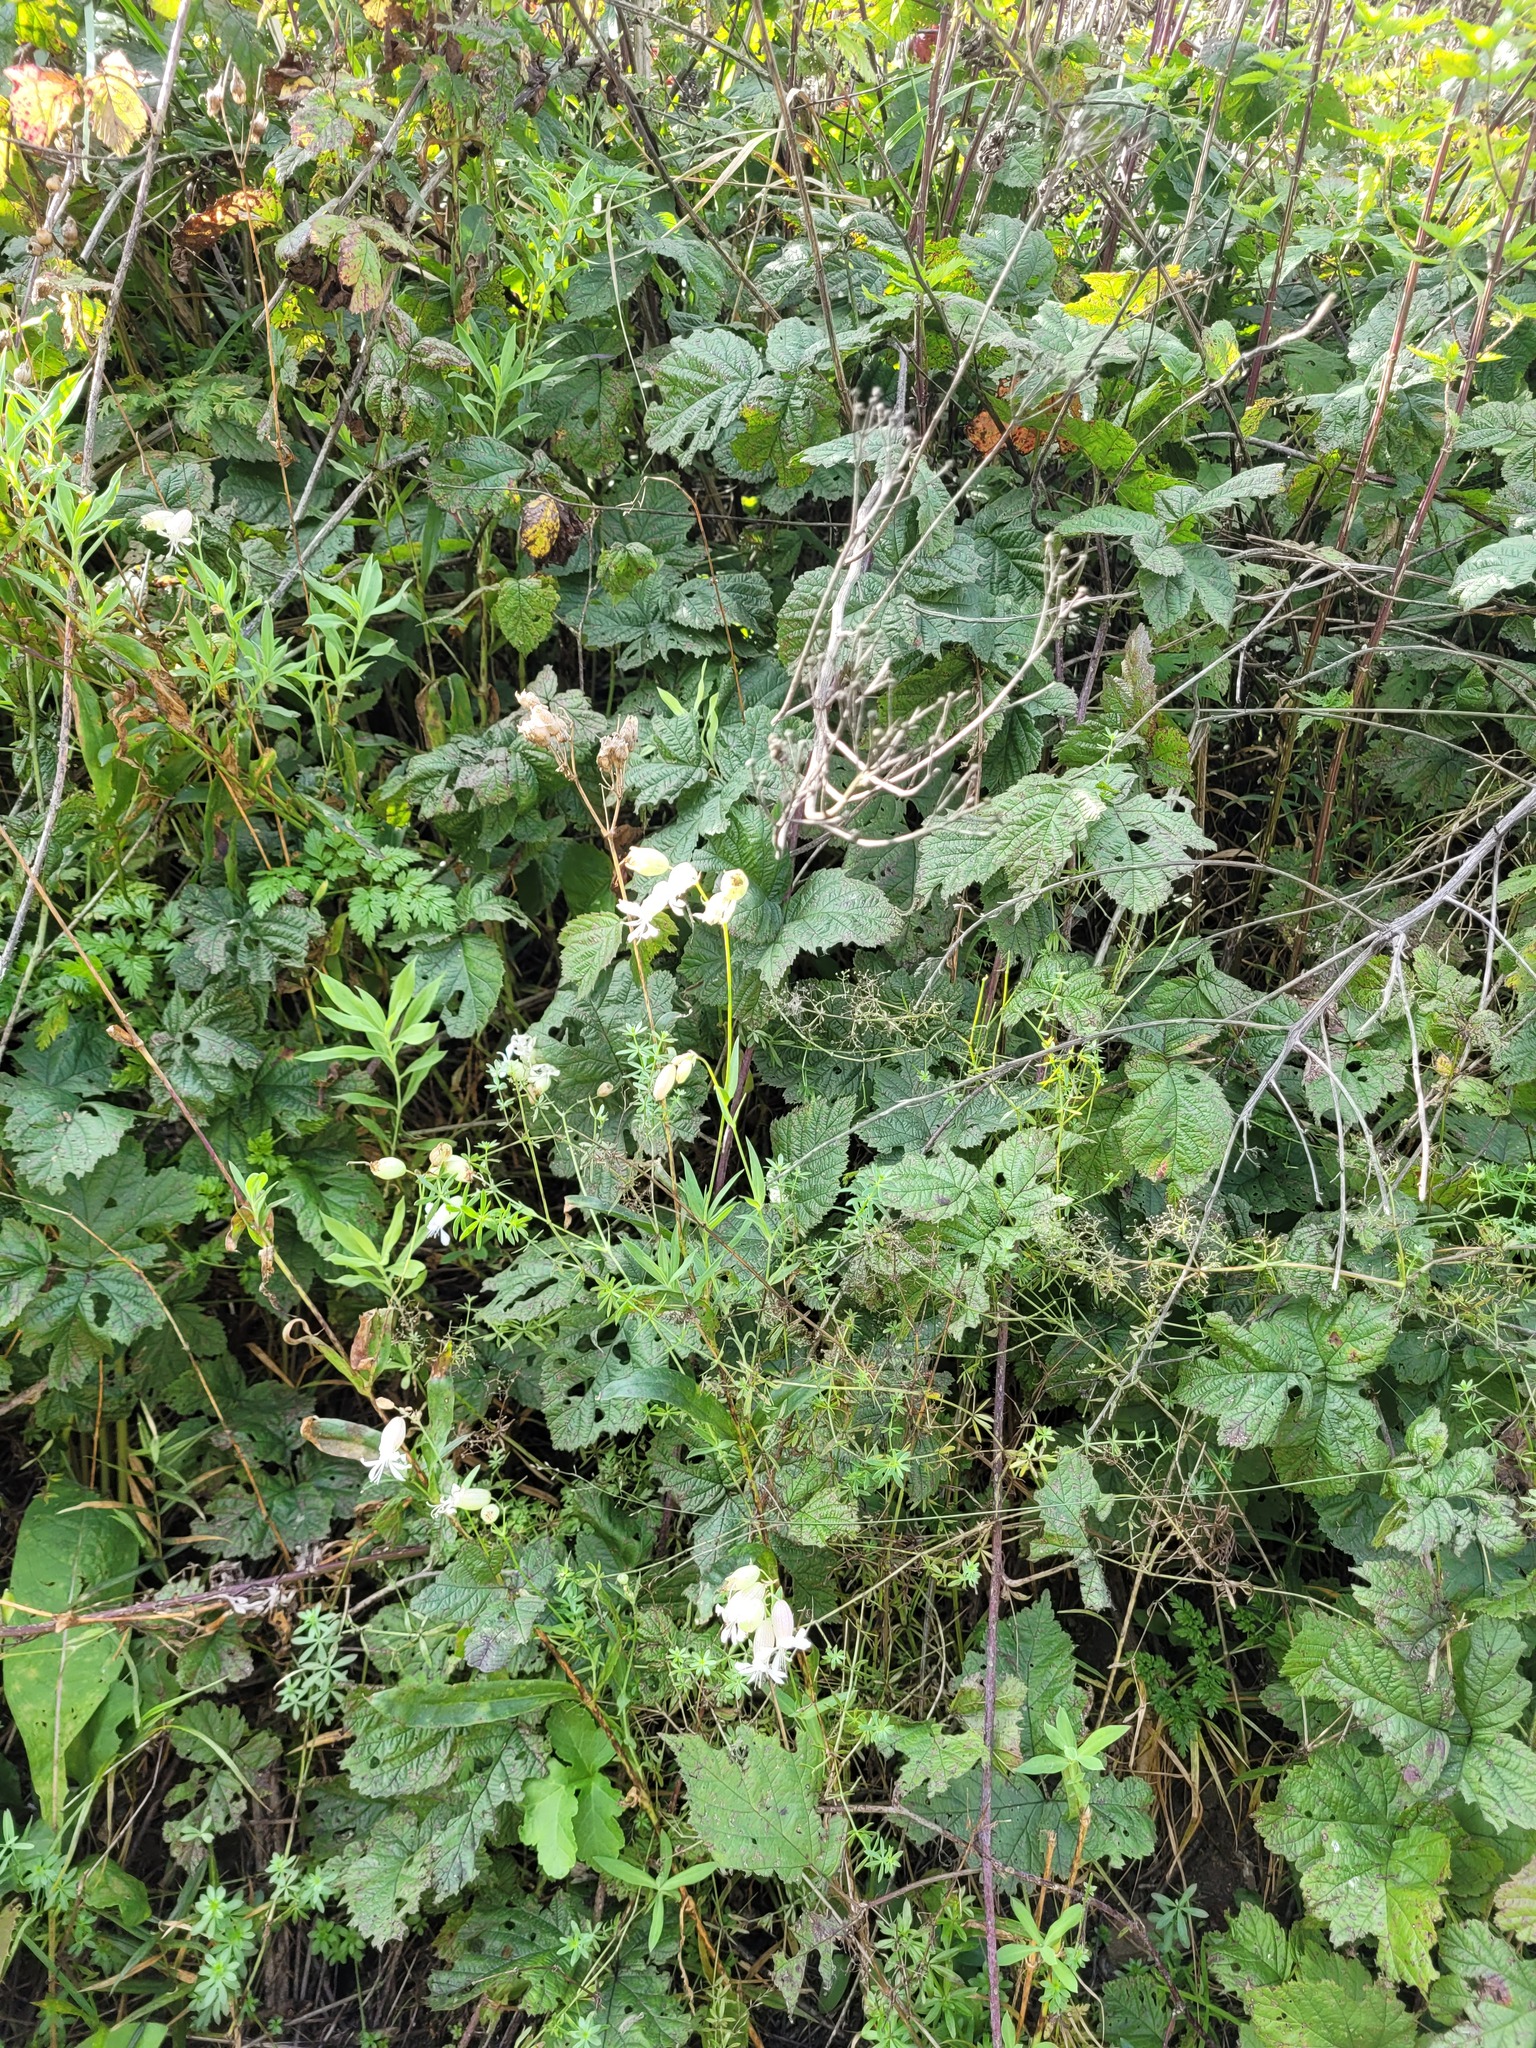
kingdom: Plantae
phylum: Tracheophyta
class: Magnoliopsida
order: Caryophyllales
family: Caryophyllaceae
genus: Silene
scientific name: Silene vulgaris
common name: Bladder campion
